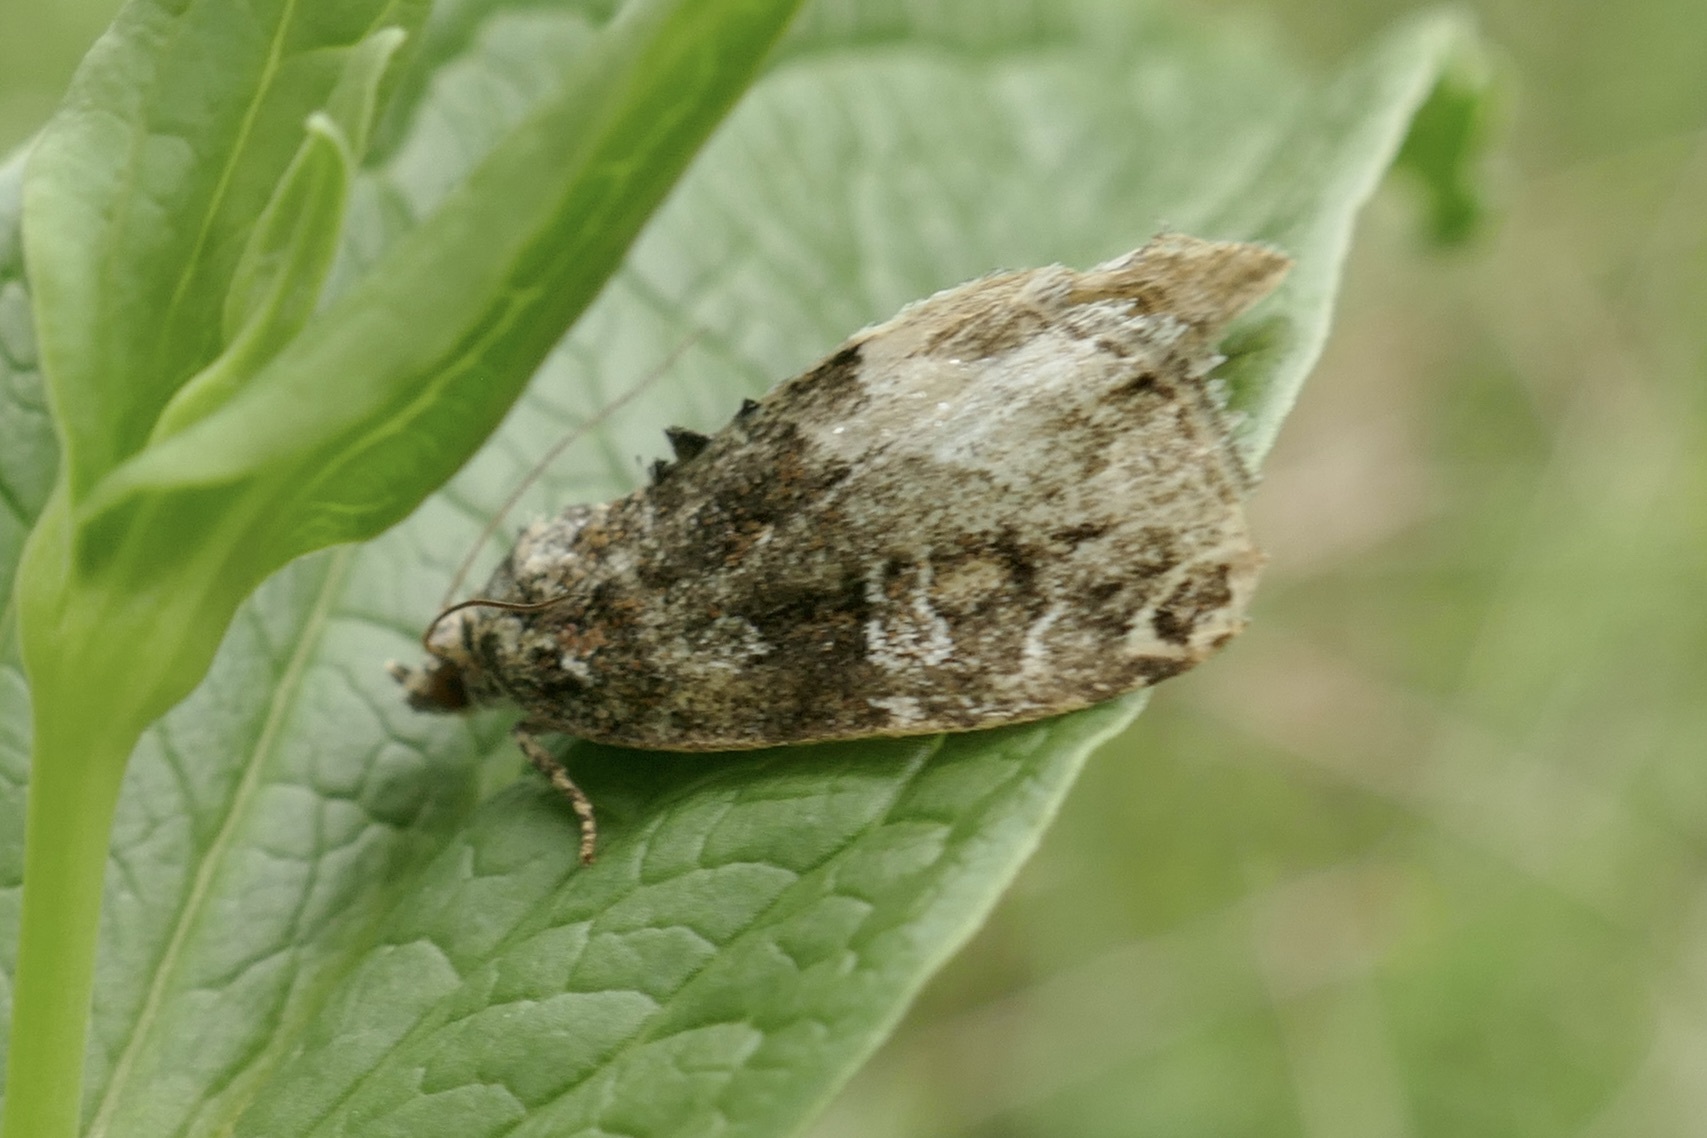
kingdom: Animalia
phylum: Arthropoda
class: Insecta
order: Lepidoptera
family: Noctuidae
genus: Deltote
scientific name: Deltote pygarga
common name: Marbled white spot
